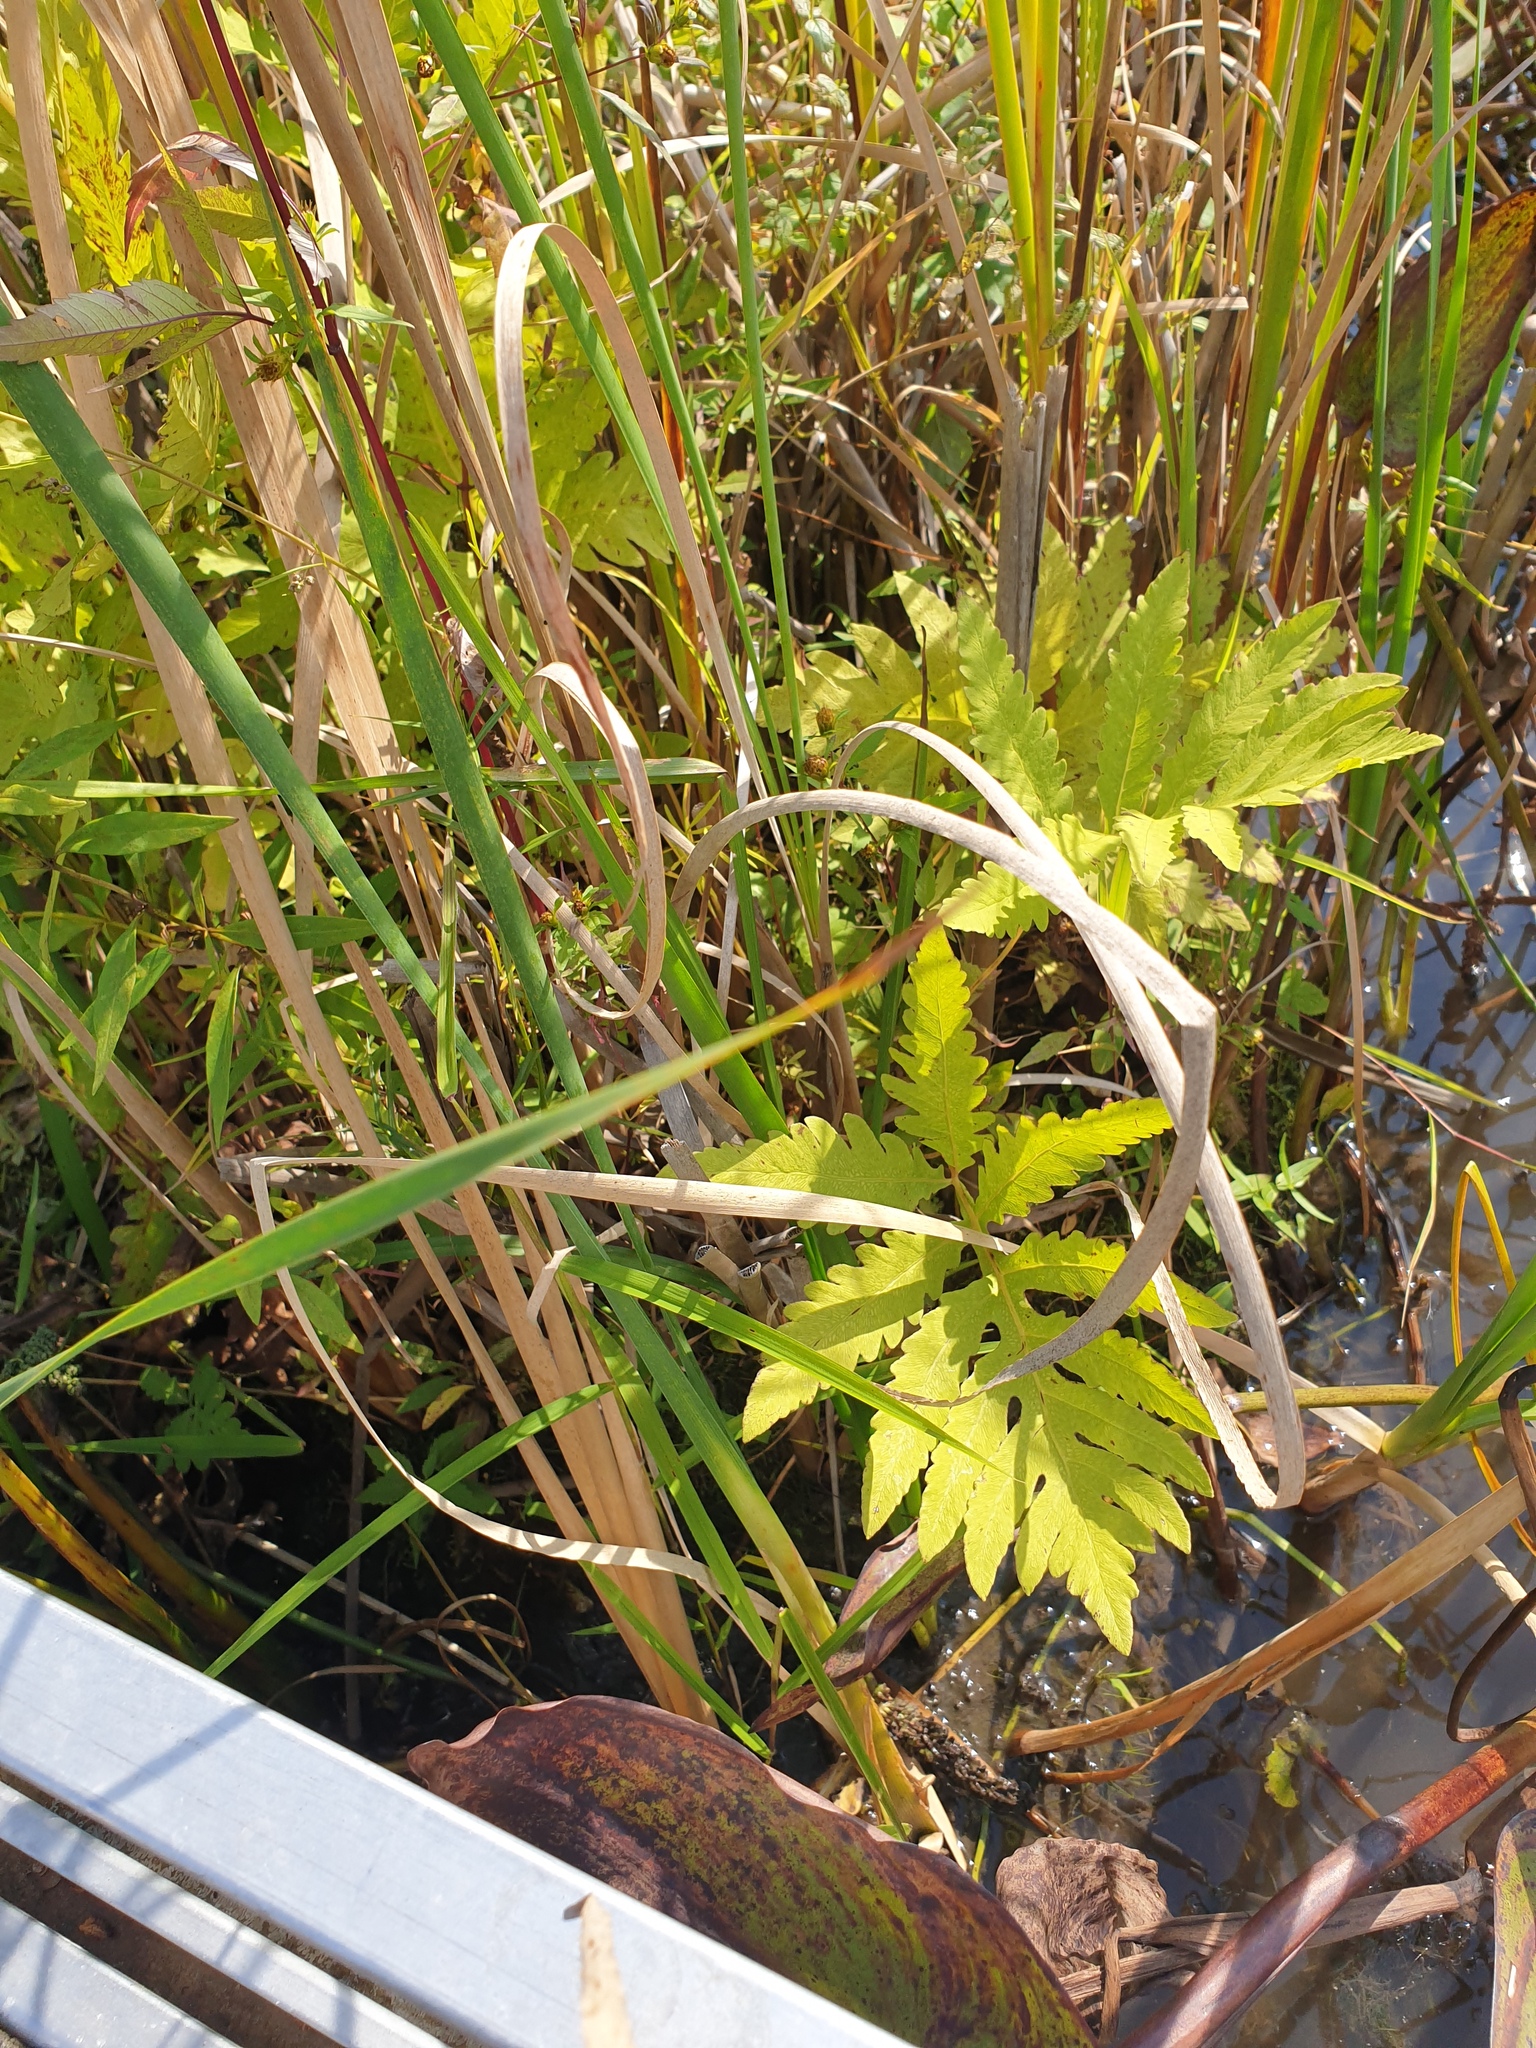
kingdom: Plantae
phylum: Tracheophyta
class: Magnoliopsida
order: Asterales
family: Asteraceae
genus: Bidens
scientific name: Bidens discoidea
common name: Discoide beggarticks
